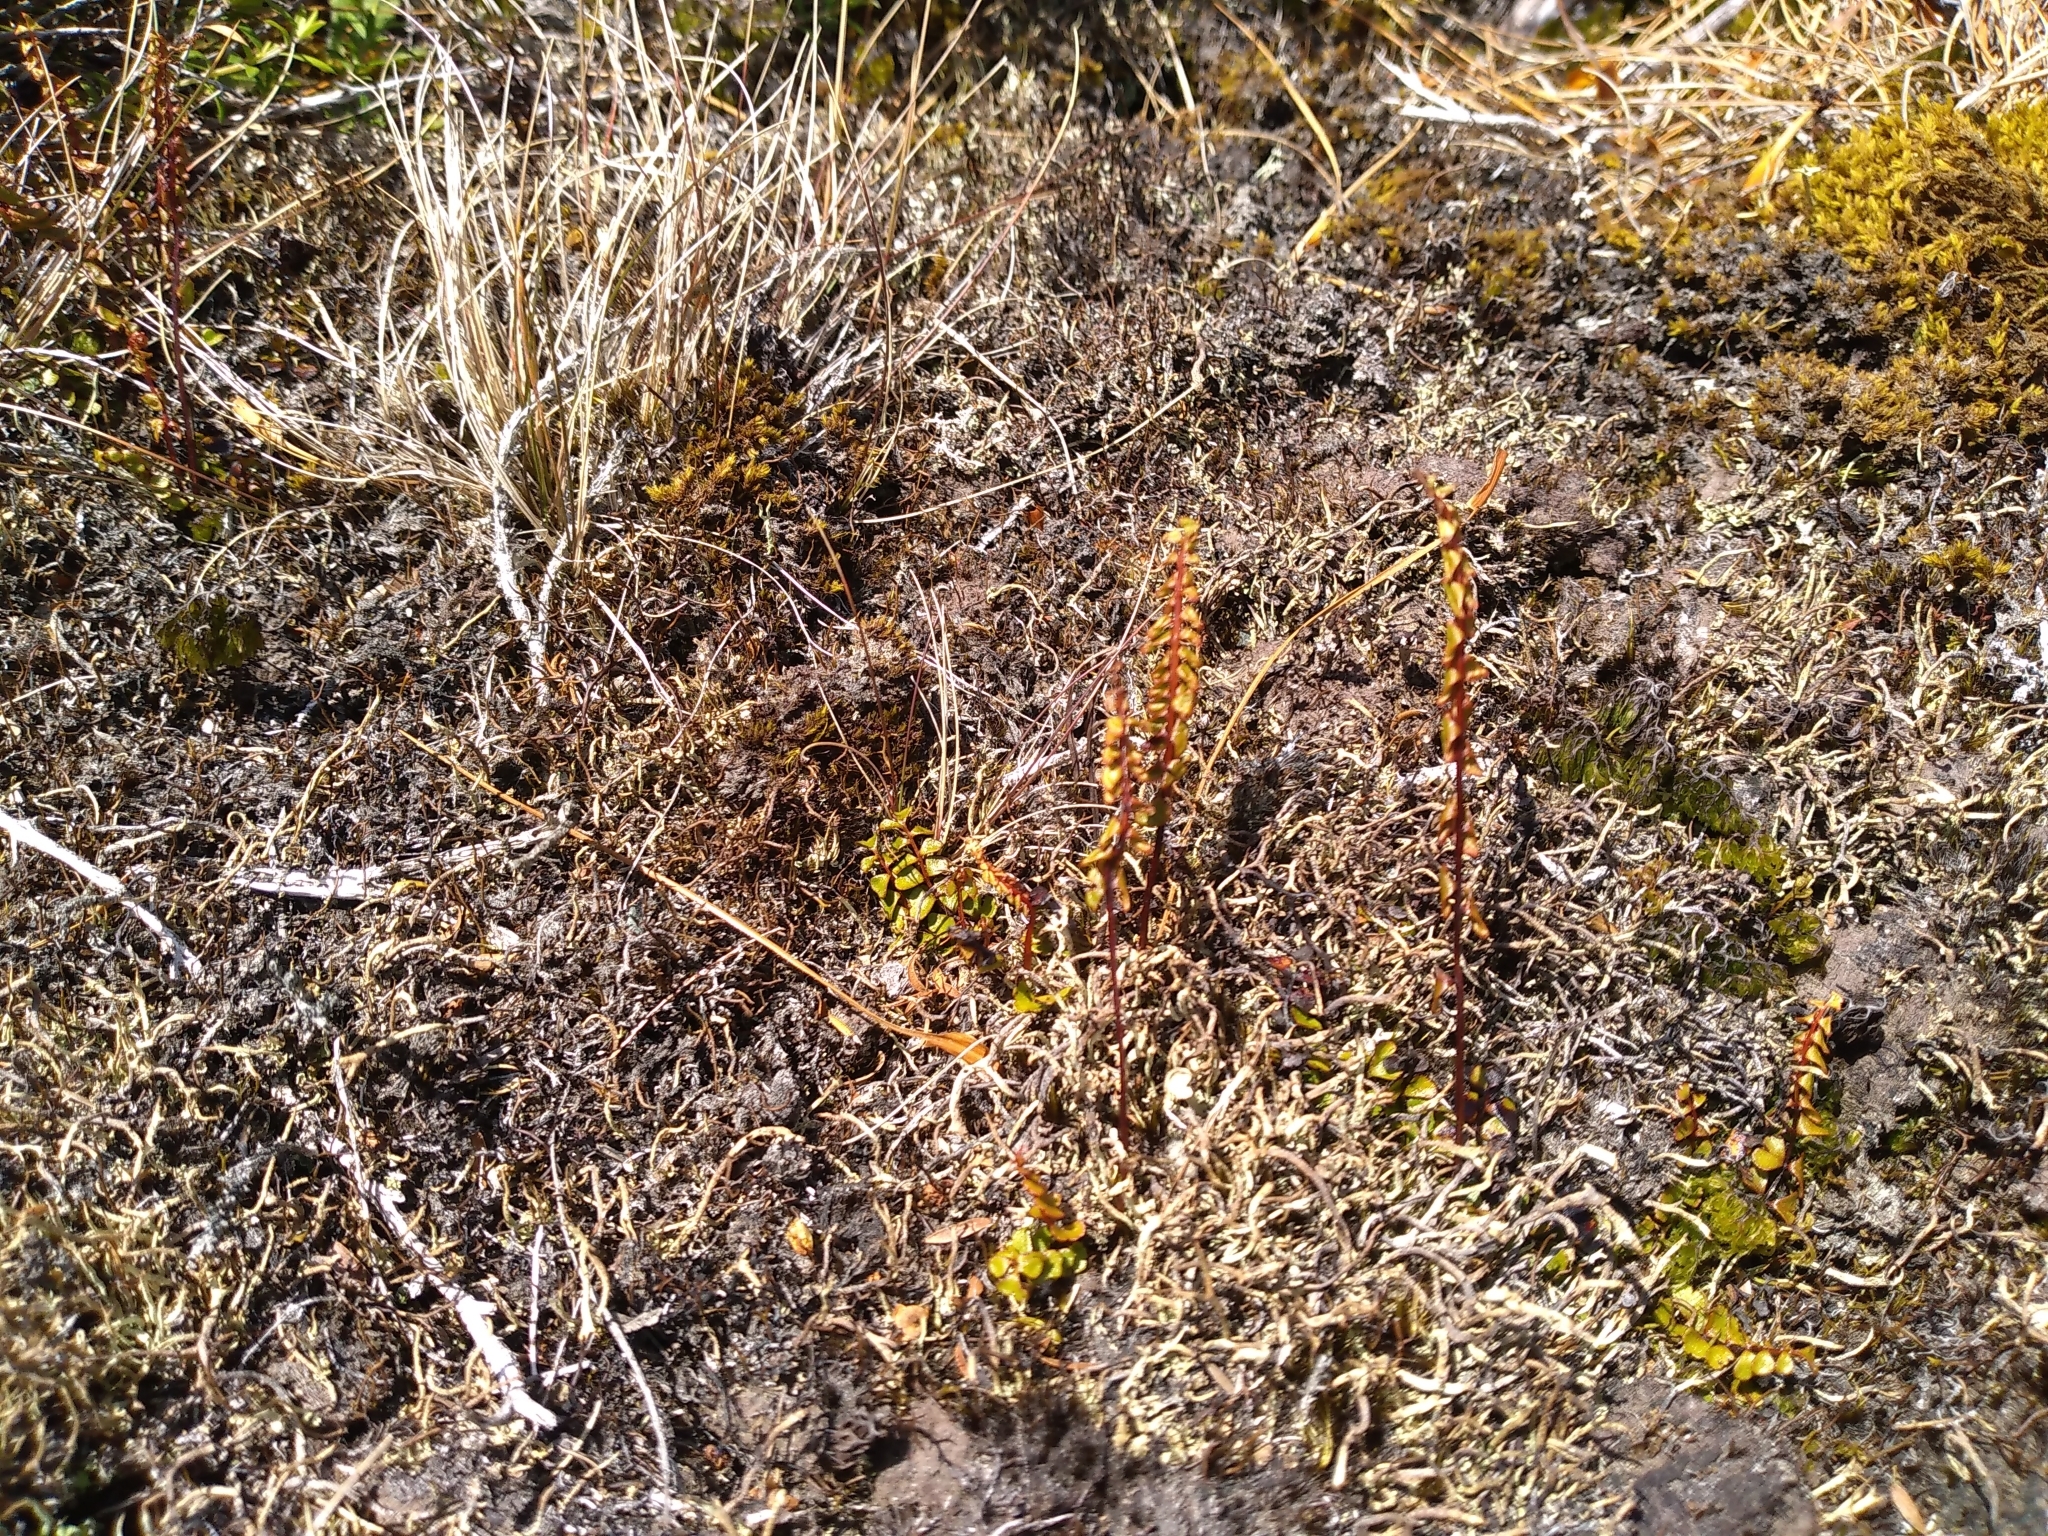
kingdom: Plantae
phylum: Tracheophyta
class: Polypodiopsida
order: Polypodiales
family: Lindsaeaceae
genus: Lindsaea
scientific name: Lindsaea linearis
